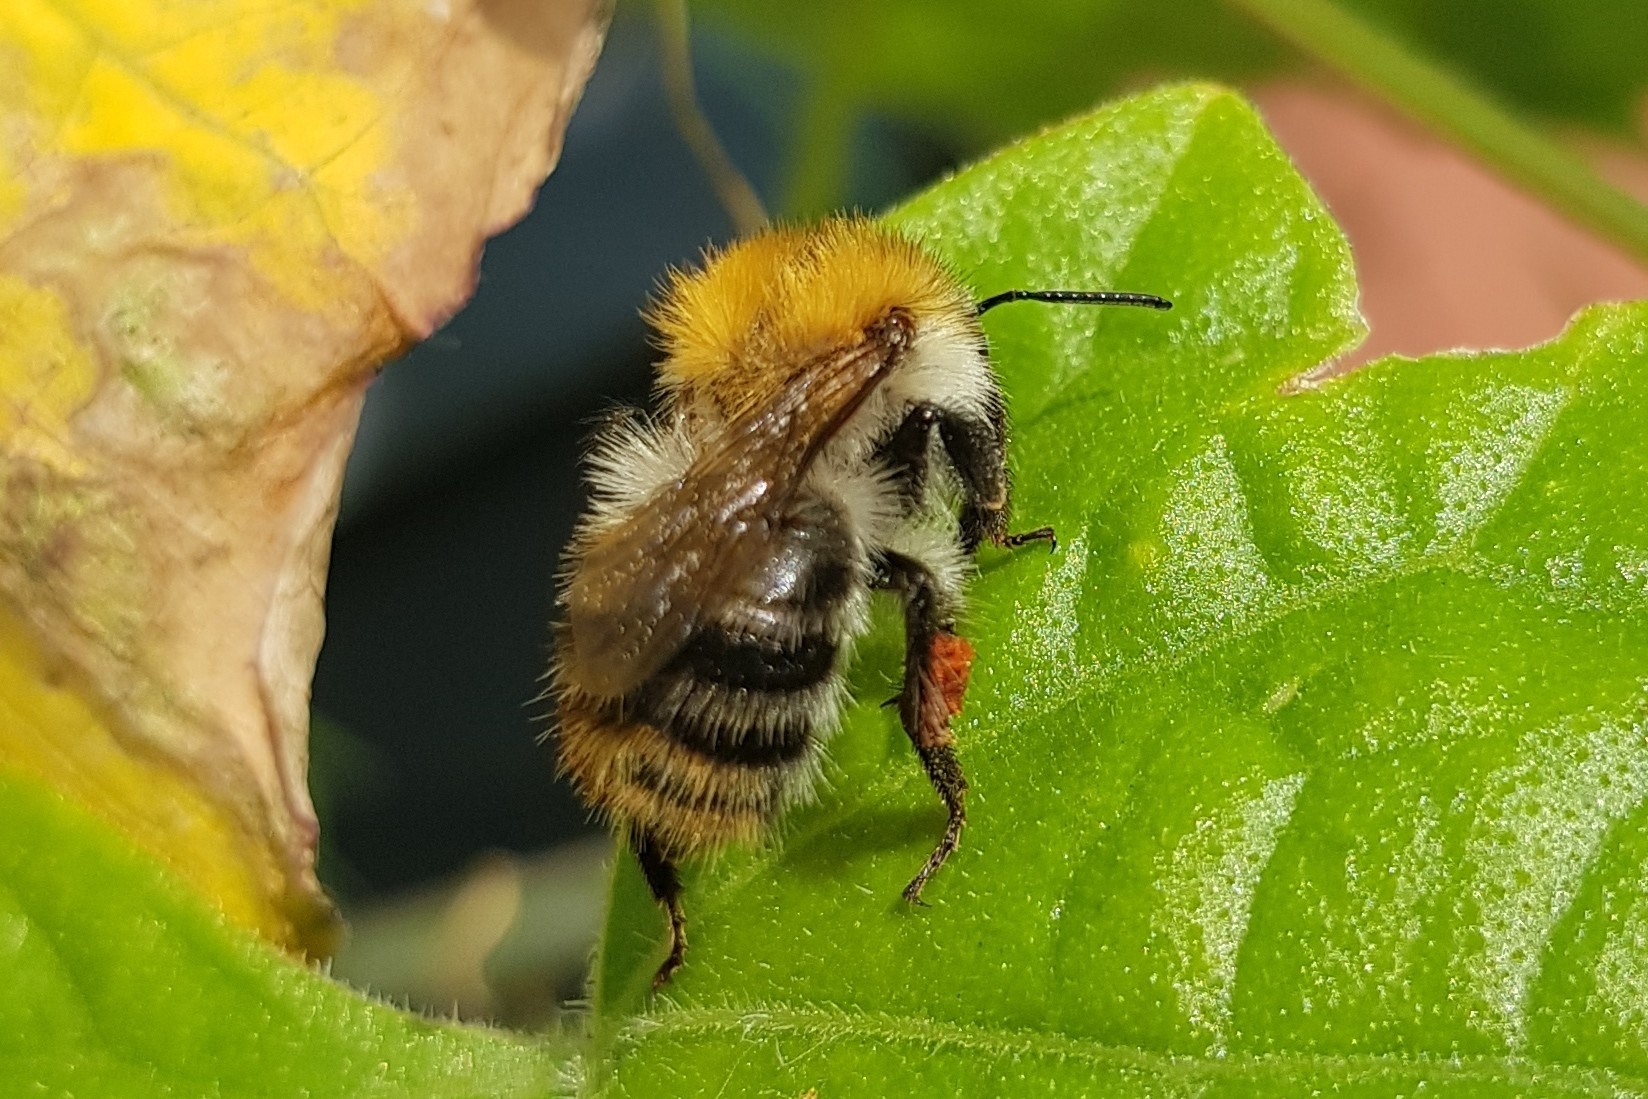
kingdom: Animalia
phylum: Arthropoda
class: Insecta
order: Hymenoptera
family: Apidae
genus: Bombus
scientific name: Bombus pascuorum
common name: Common carder bee
